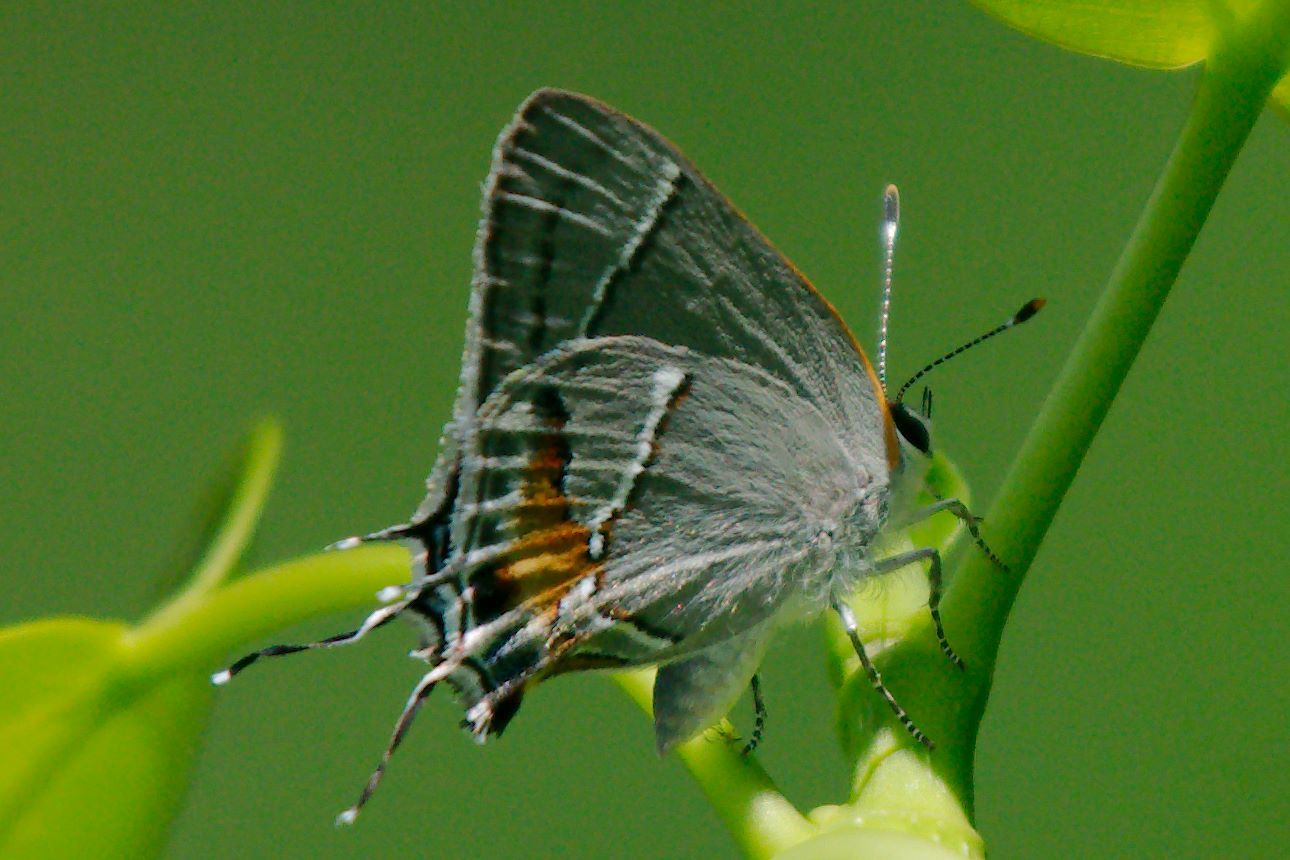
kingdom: Animalia
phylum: Arthropoda
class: Insecta
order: Lepidoptera
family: Lycaenidae
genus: Thecla
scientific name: Thecla martialis
